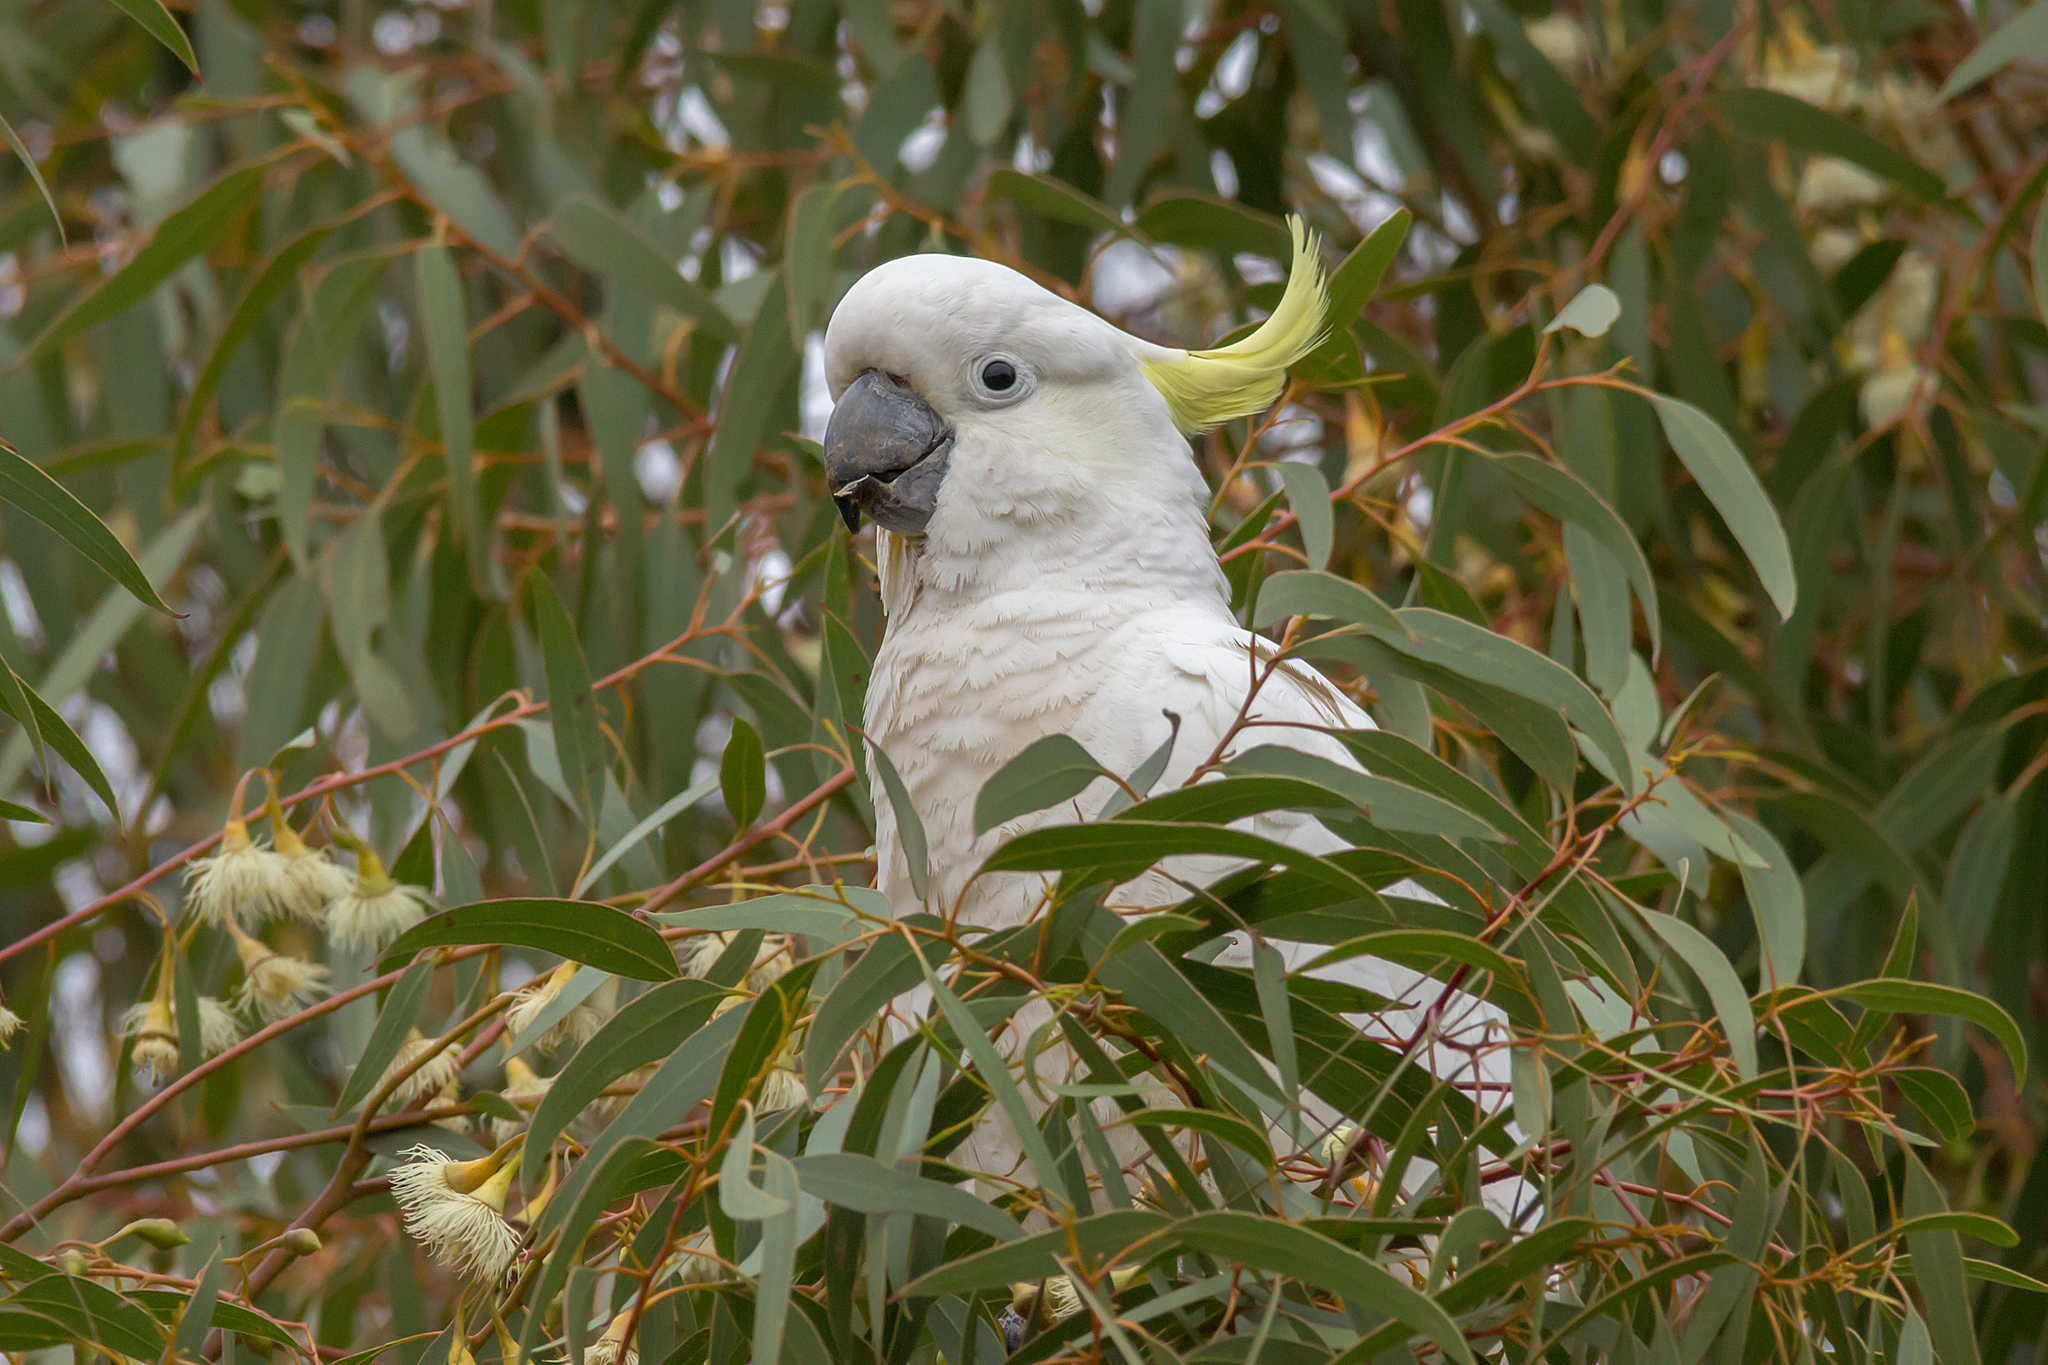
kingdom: Animalia
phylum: Chordata
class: Aves
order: Psittaciformes
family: Psittacidae
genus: Cacatua
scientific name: Cacatua galerita
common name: Sulphur-crested cockatoo
